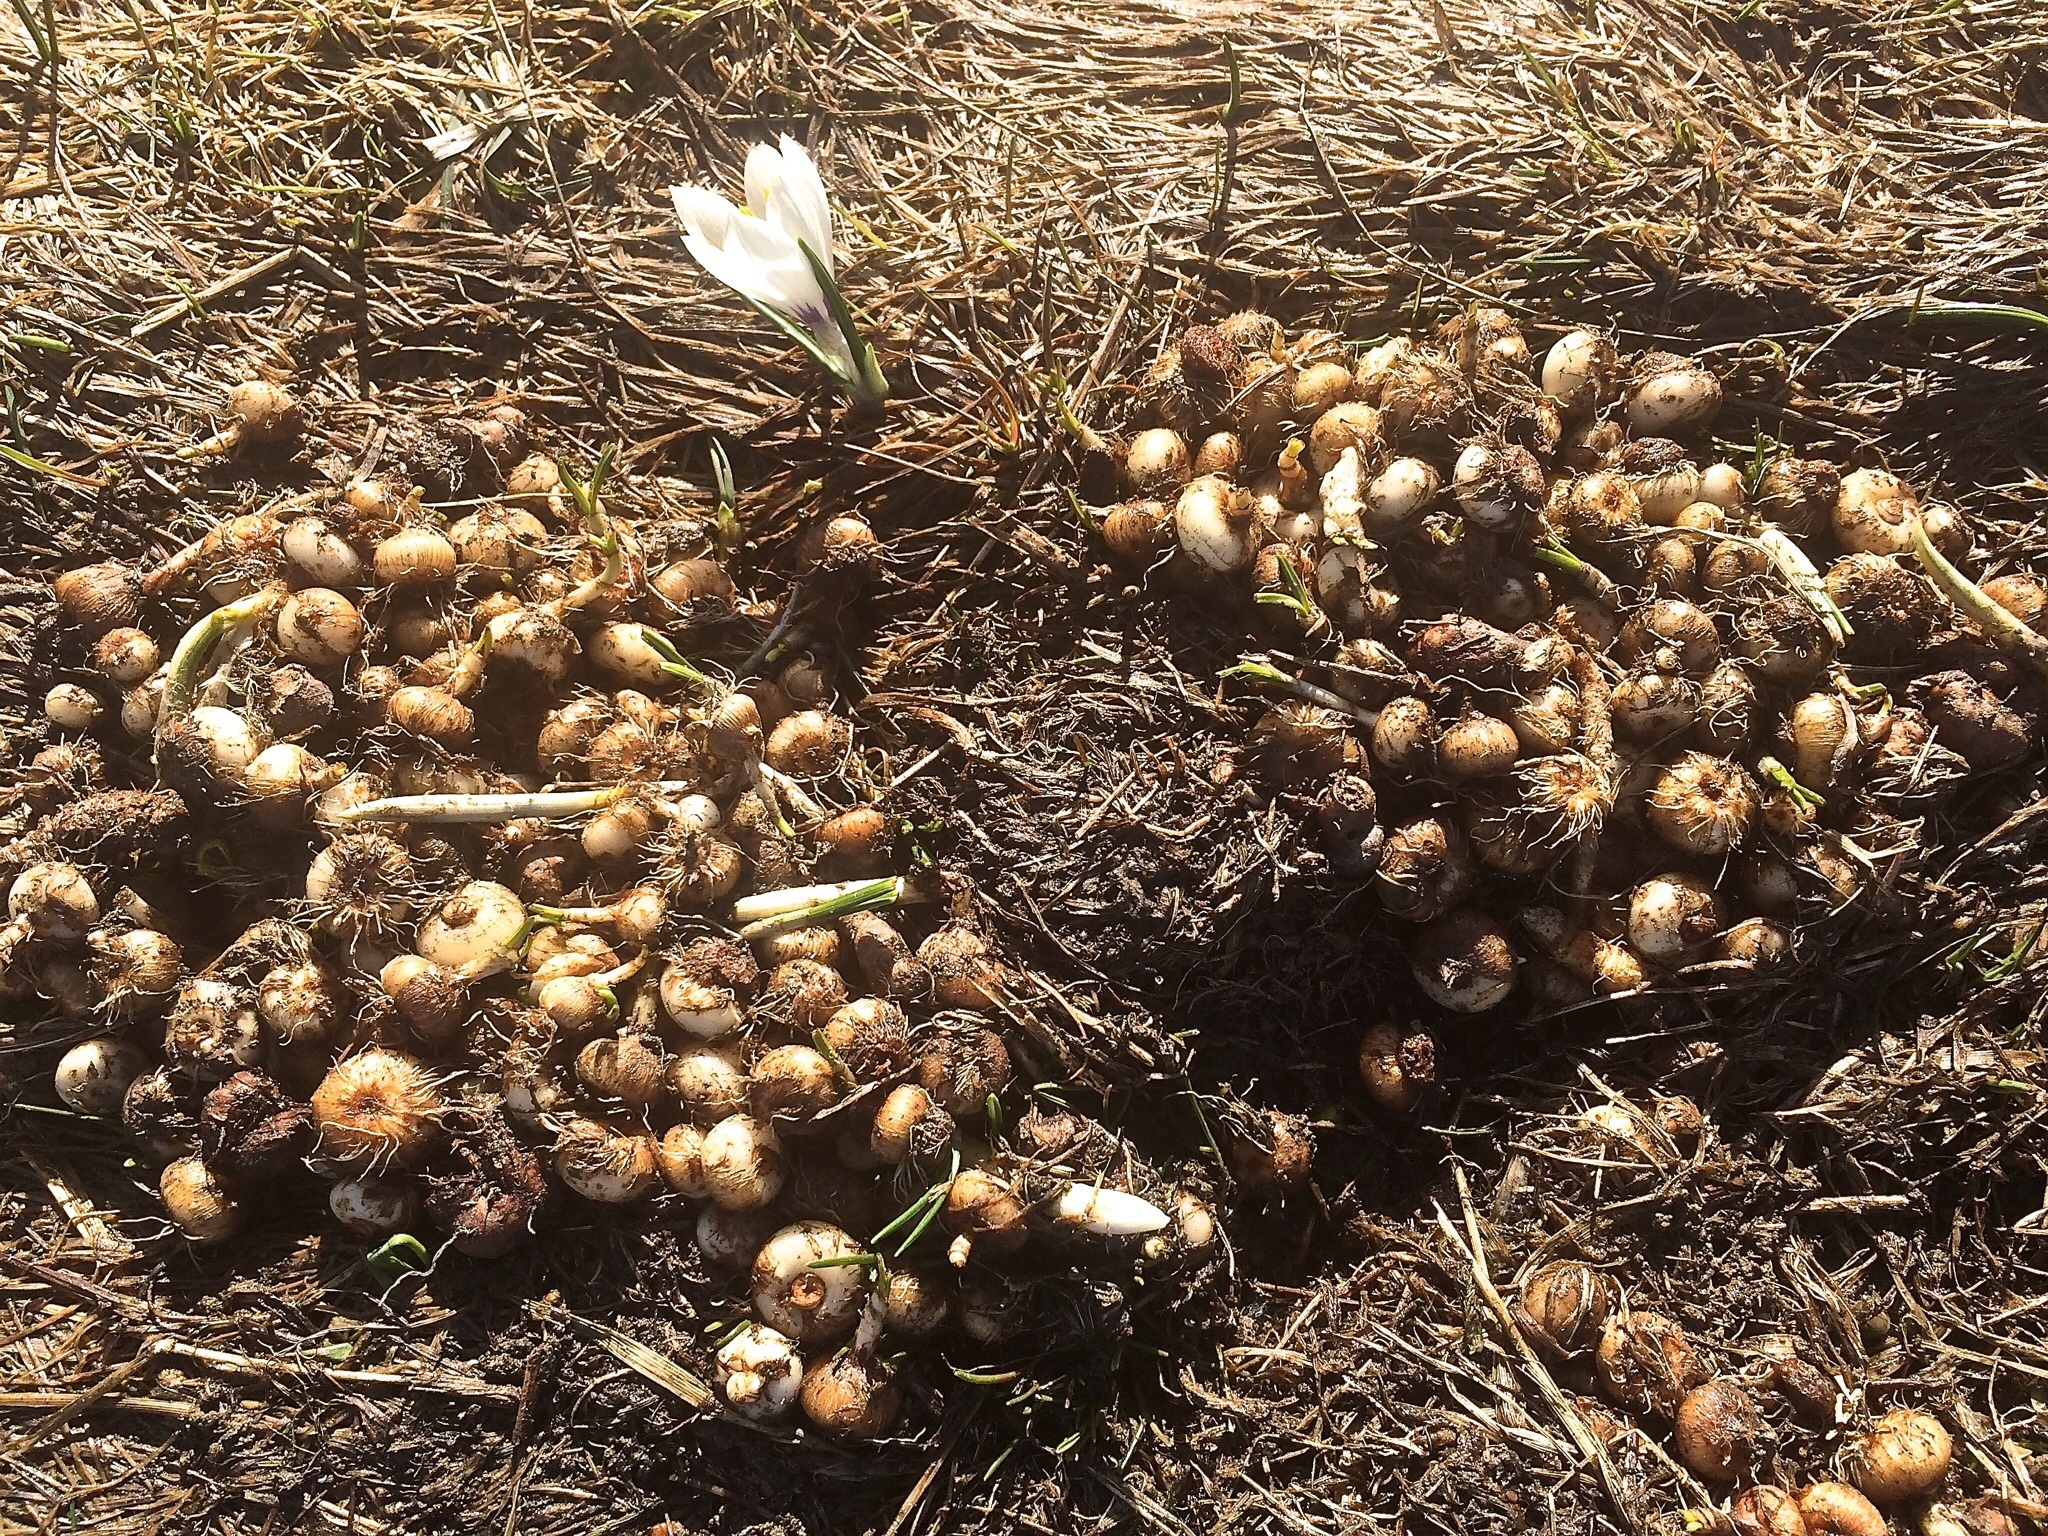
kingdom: Plantae
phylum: Tracheophyta
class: Liliopsida
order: Asparagales
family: Iridaceae
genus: Crocus
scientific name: Crocus vernus
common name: Spring crocus
